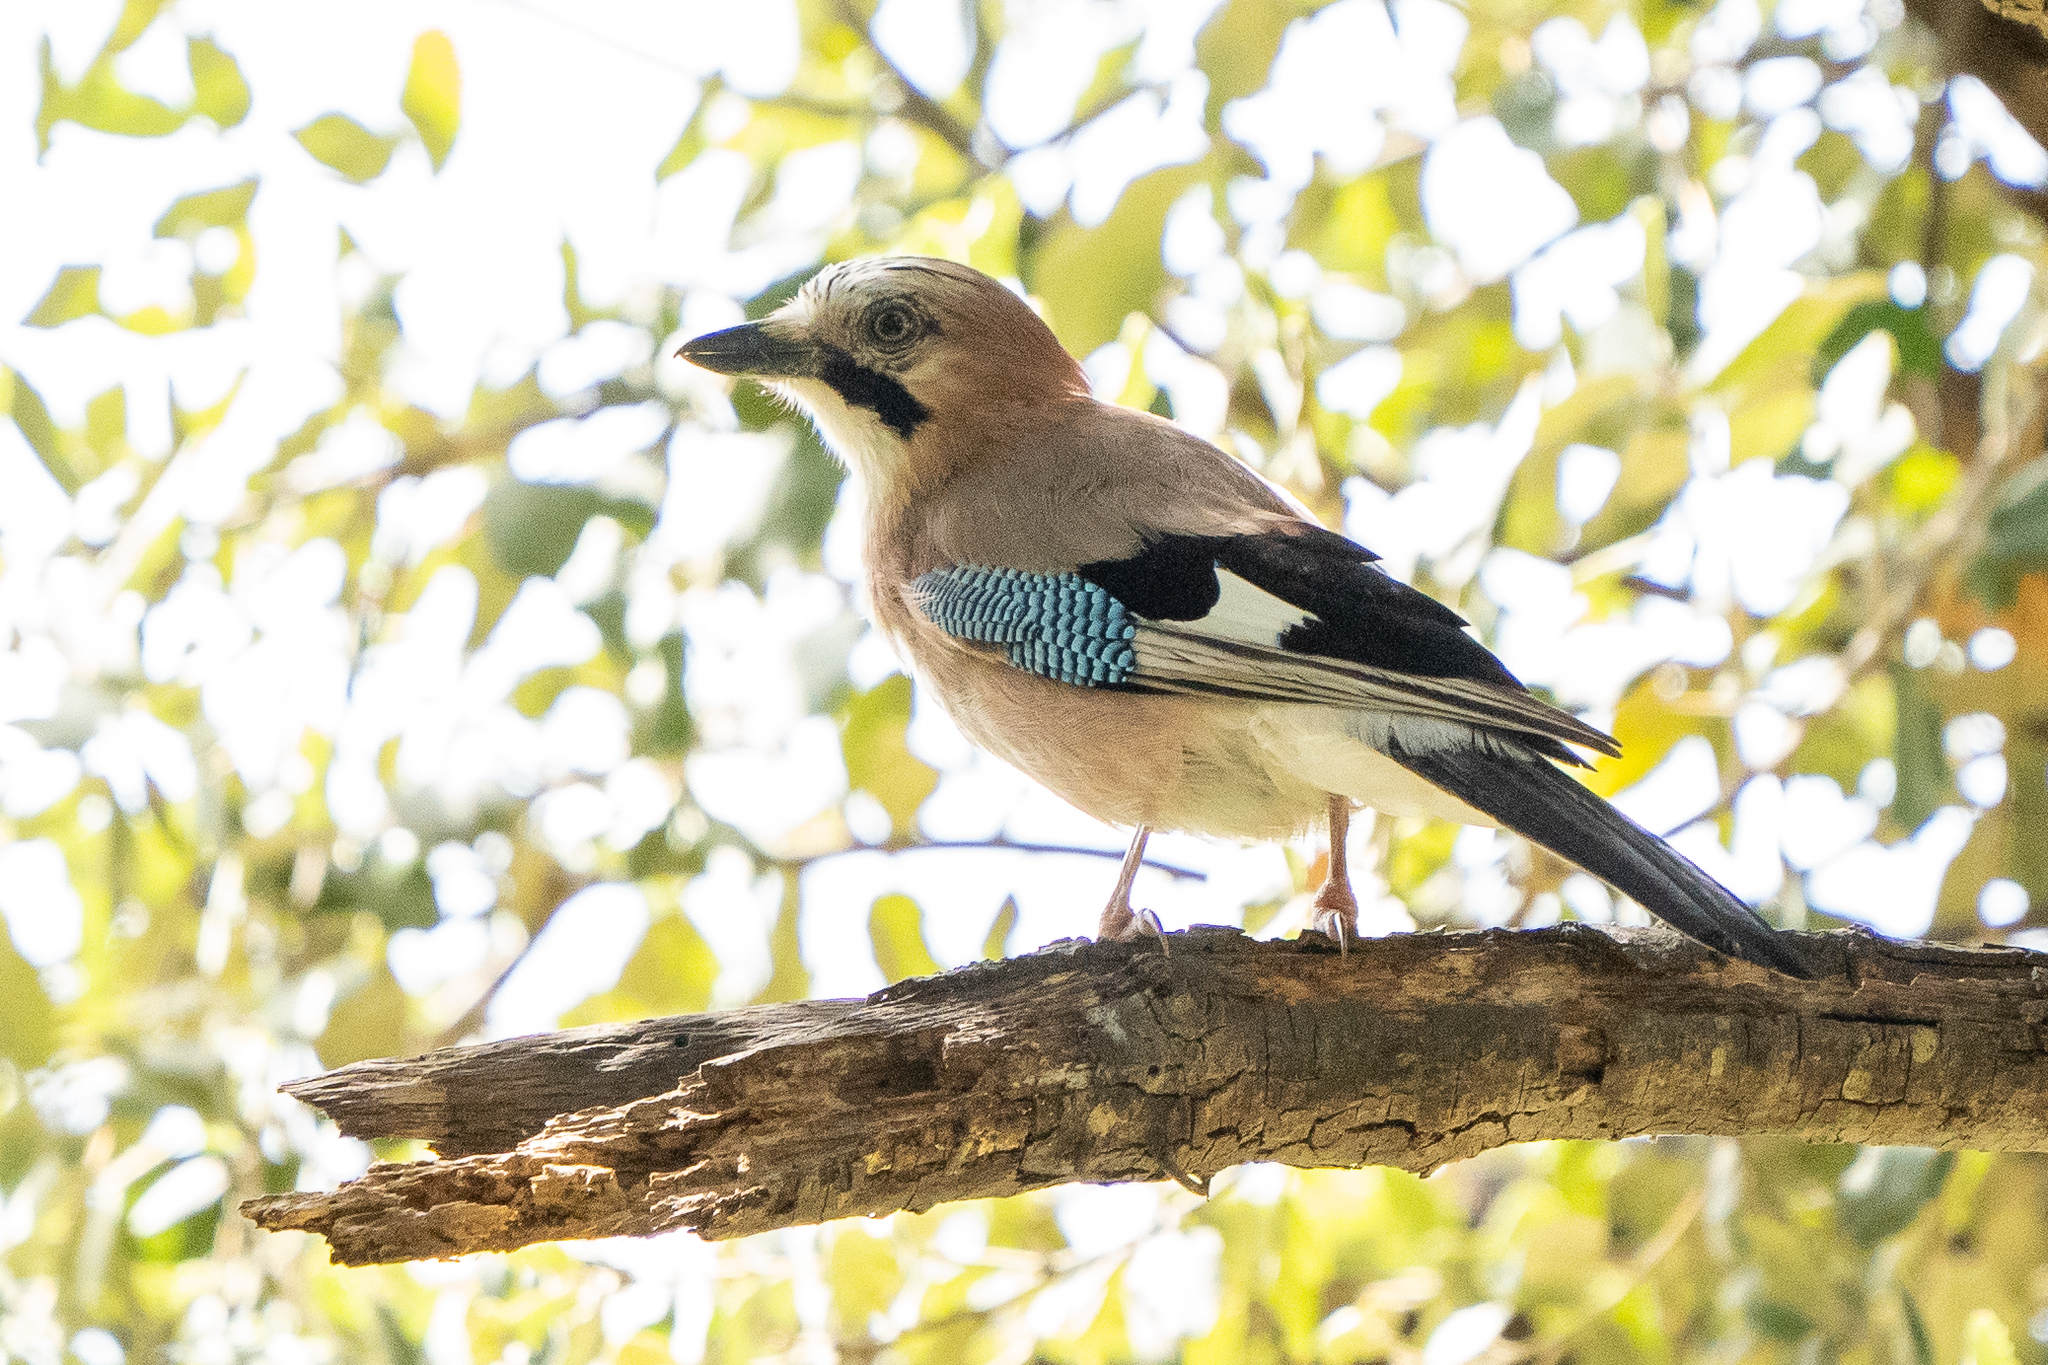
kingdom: Animalia
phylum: Chordata
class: Aves
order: Passeriformes
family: Corvidae
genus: Garrulus
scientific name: Garrulus glandarius
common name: Eurasian jay
